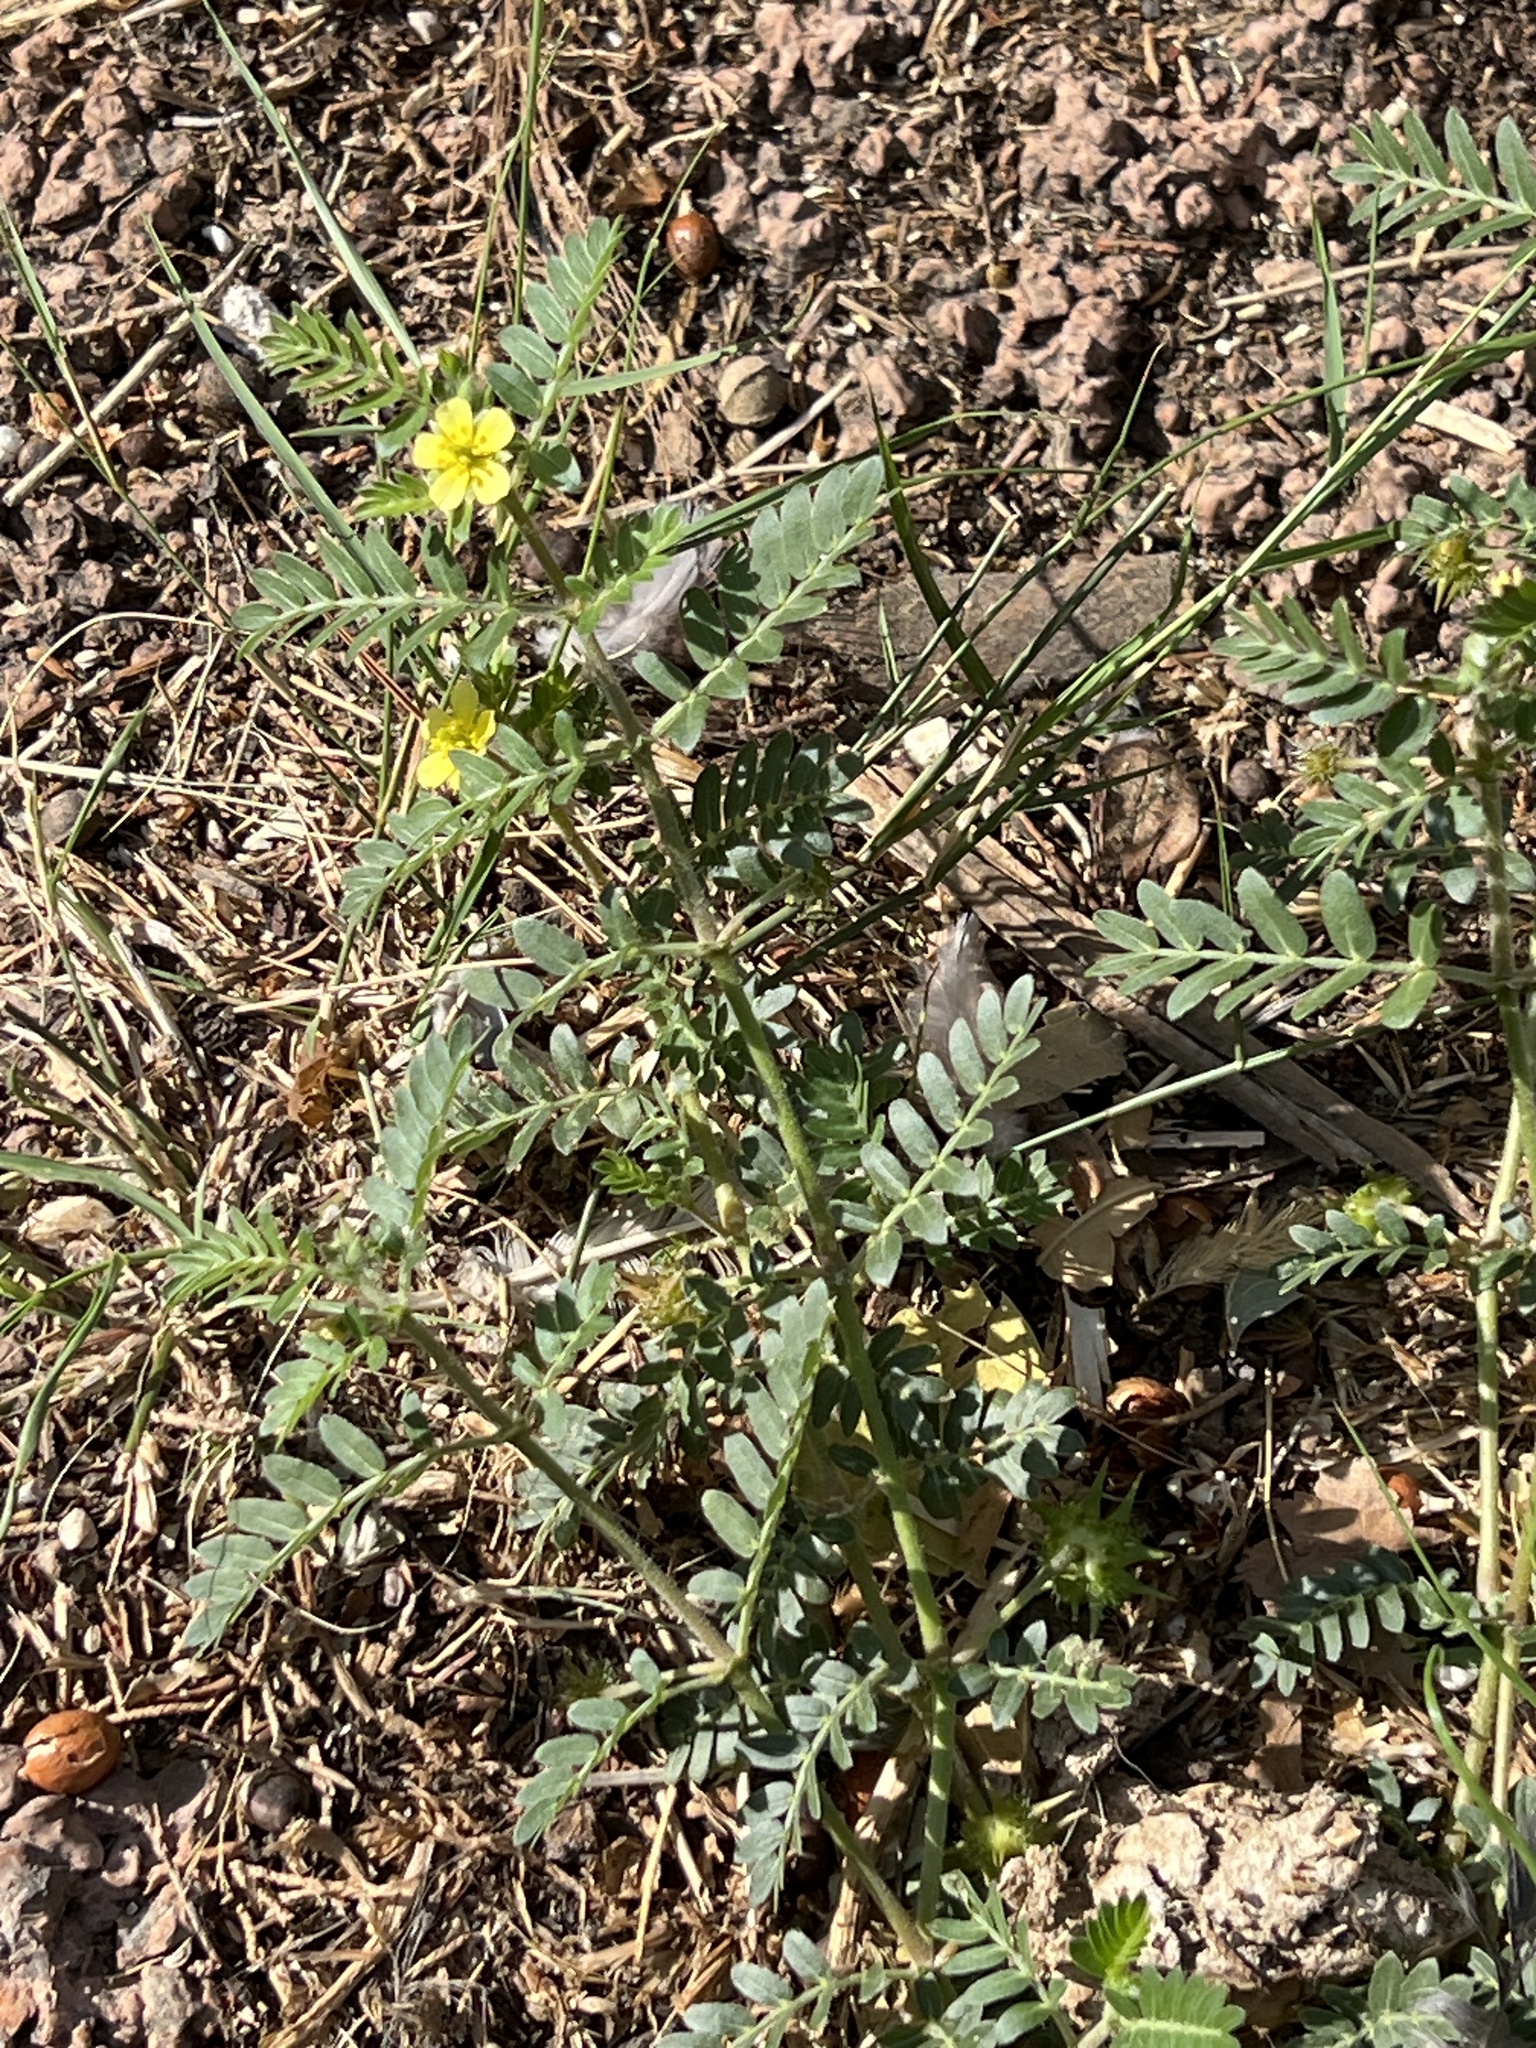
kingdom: Plantae
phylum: Tracheophyta
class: Magnoliopsida
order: Zygophyllales
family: Zygophyllaceae
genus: Tribulus
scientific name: Tribulus terrestris
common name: Puncturevine
